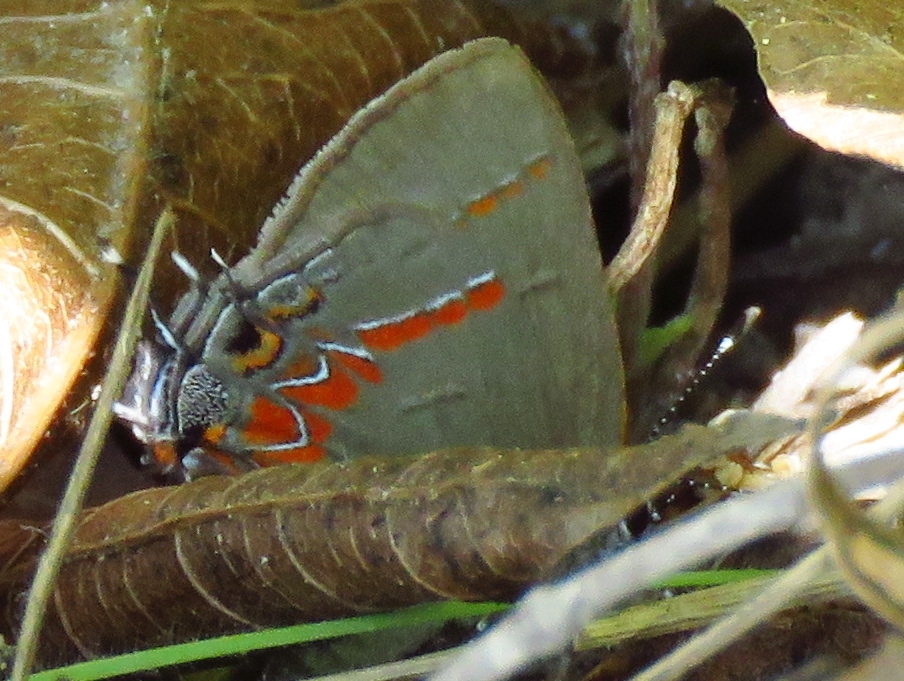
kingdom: Animalia
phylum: Arthropoda
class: Insecta
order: Lepidoptera
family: Lycaenidae
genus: Calycopis
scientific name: Calycopis isobeon
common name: Dusky-blue groundstreak
